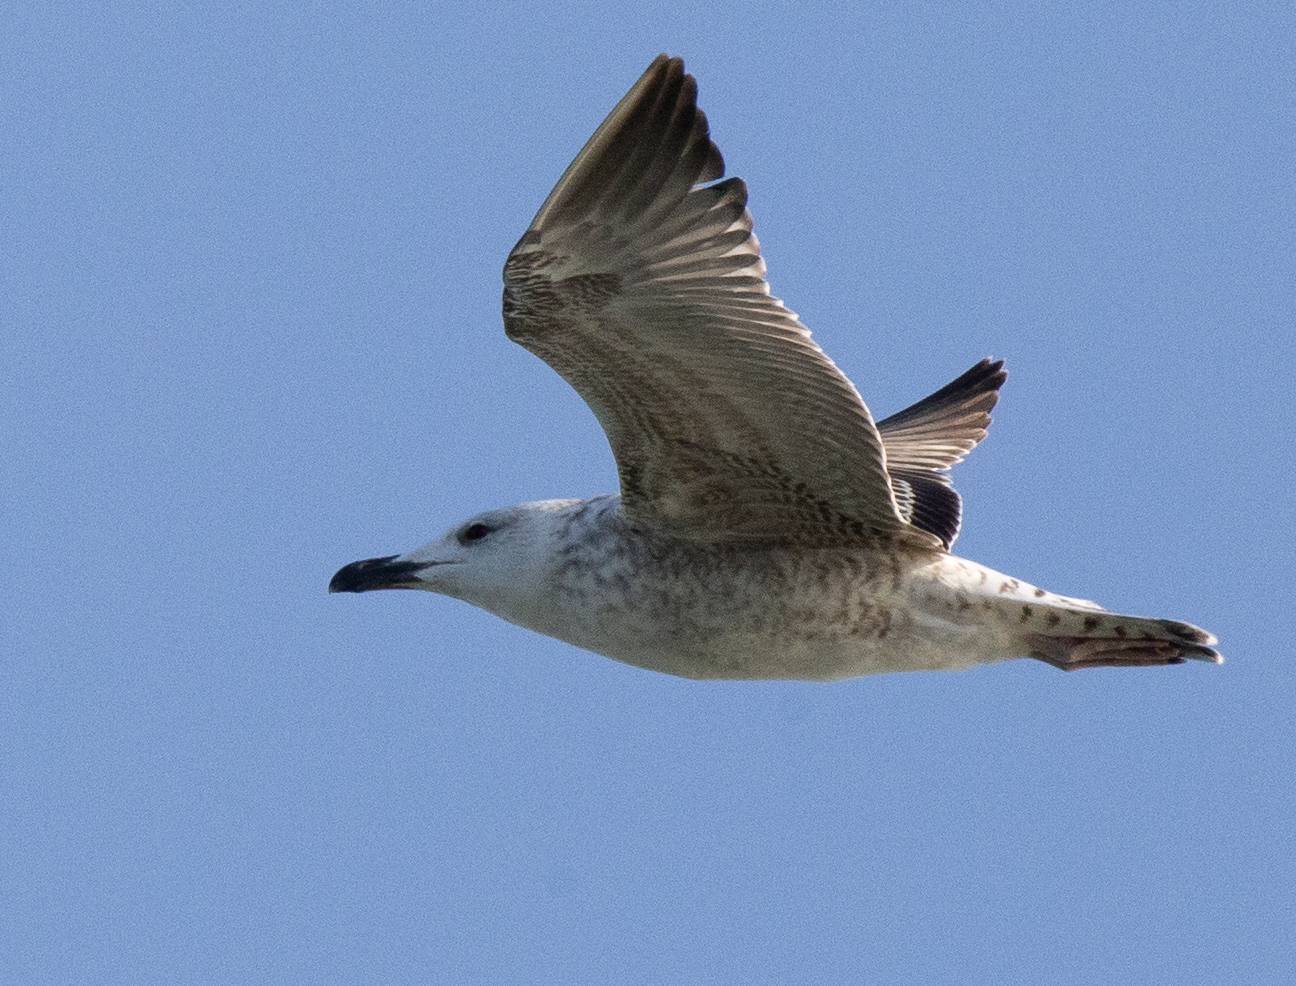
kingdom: Animalia
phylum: Chordata
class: Aves
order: Charadriiformes
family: Laridae
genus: Larus
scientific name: Larus michahellis
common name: Yellow-legged gull
